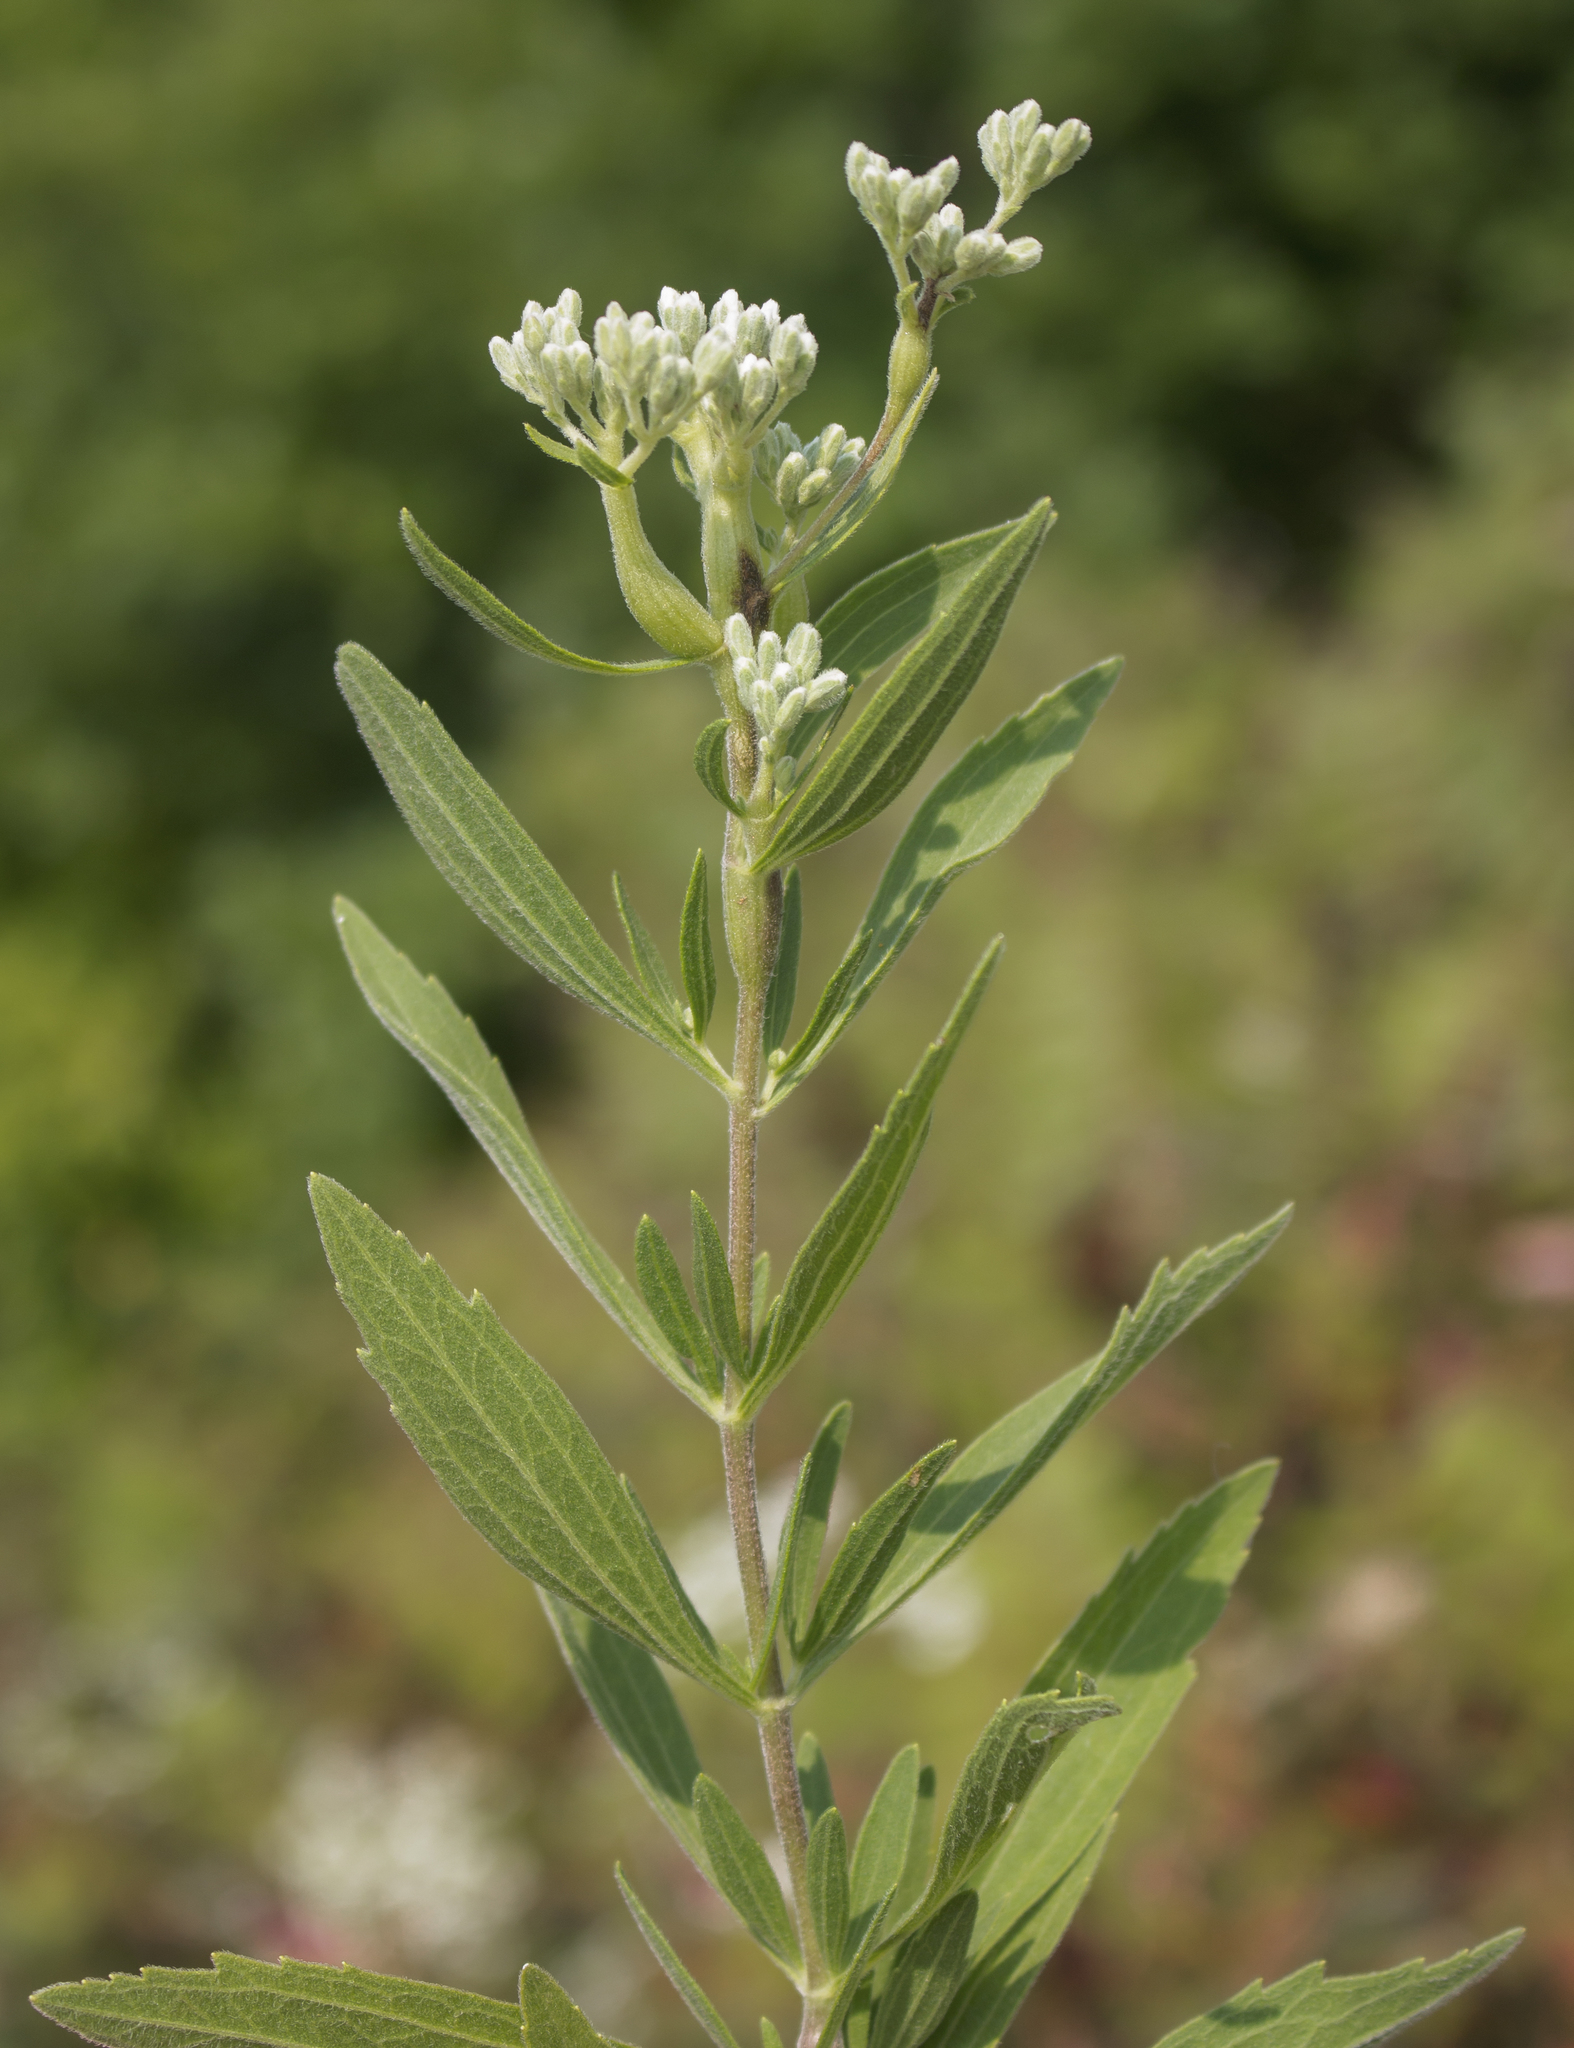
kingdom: Plantae
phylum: Tracheophyta
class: Magnoliopsida
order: Asterales
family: Asteraceae
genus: Eupatorium
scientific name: Eupatorium altissimum
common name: Tall thoroughwort
